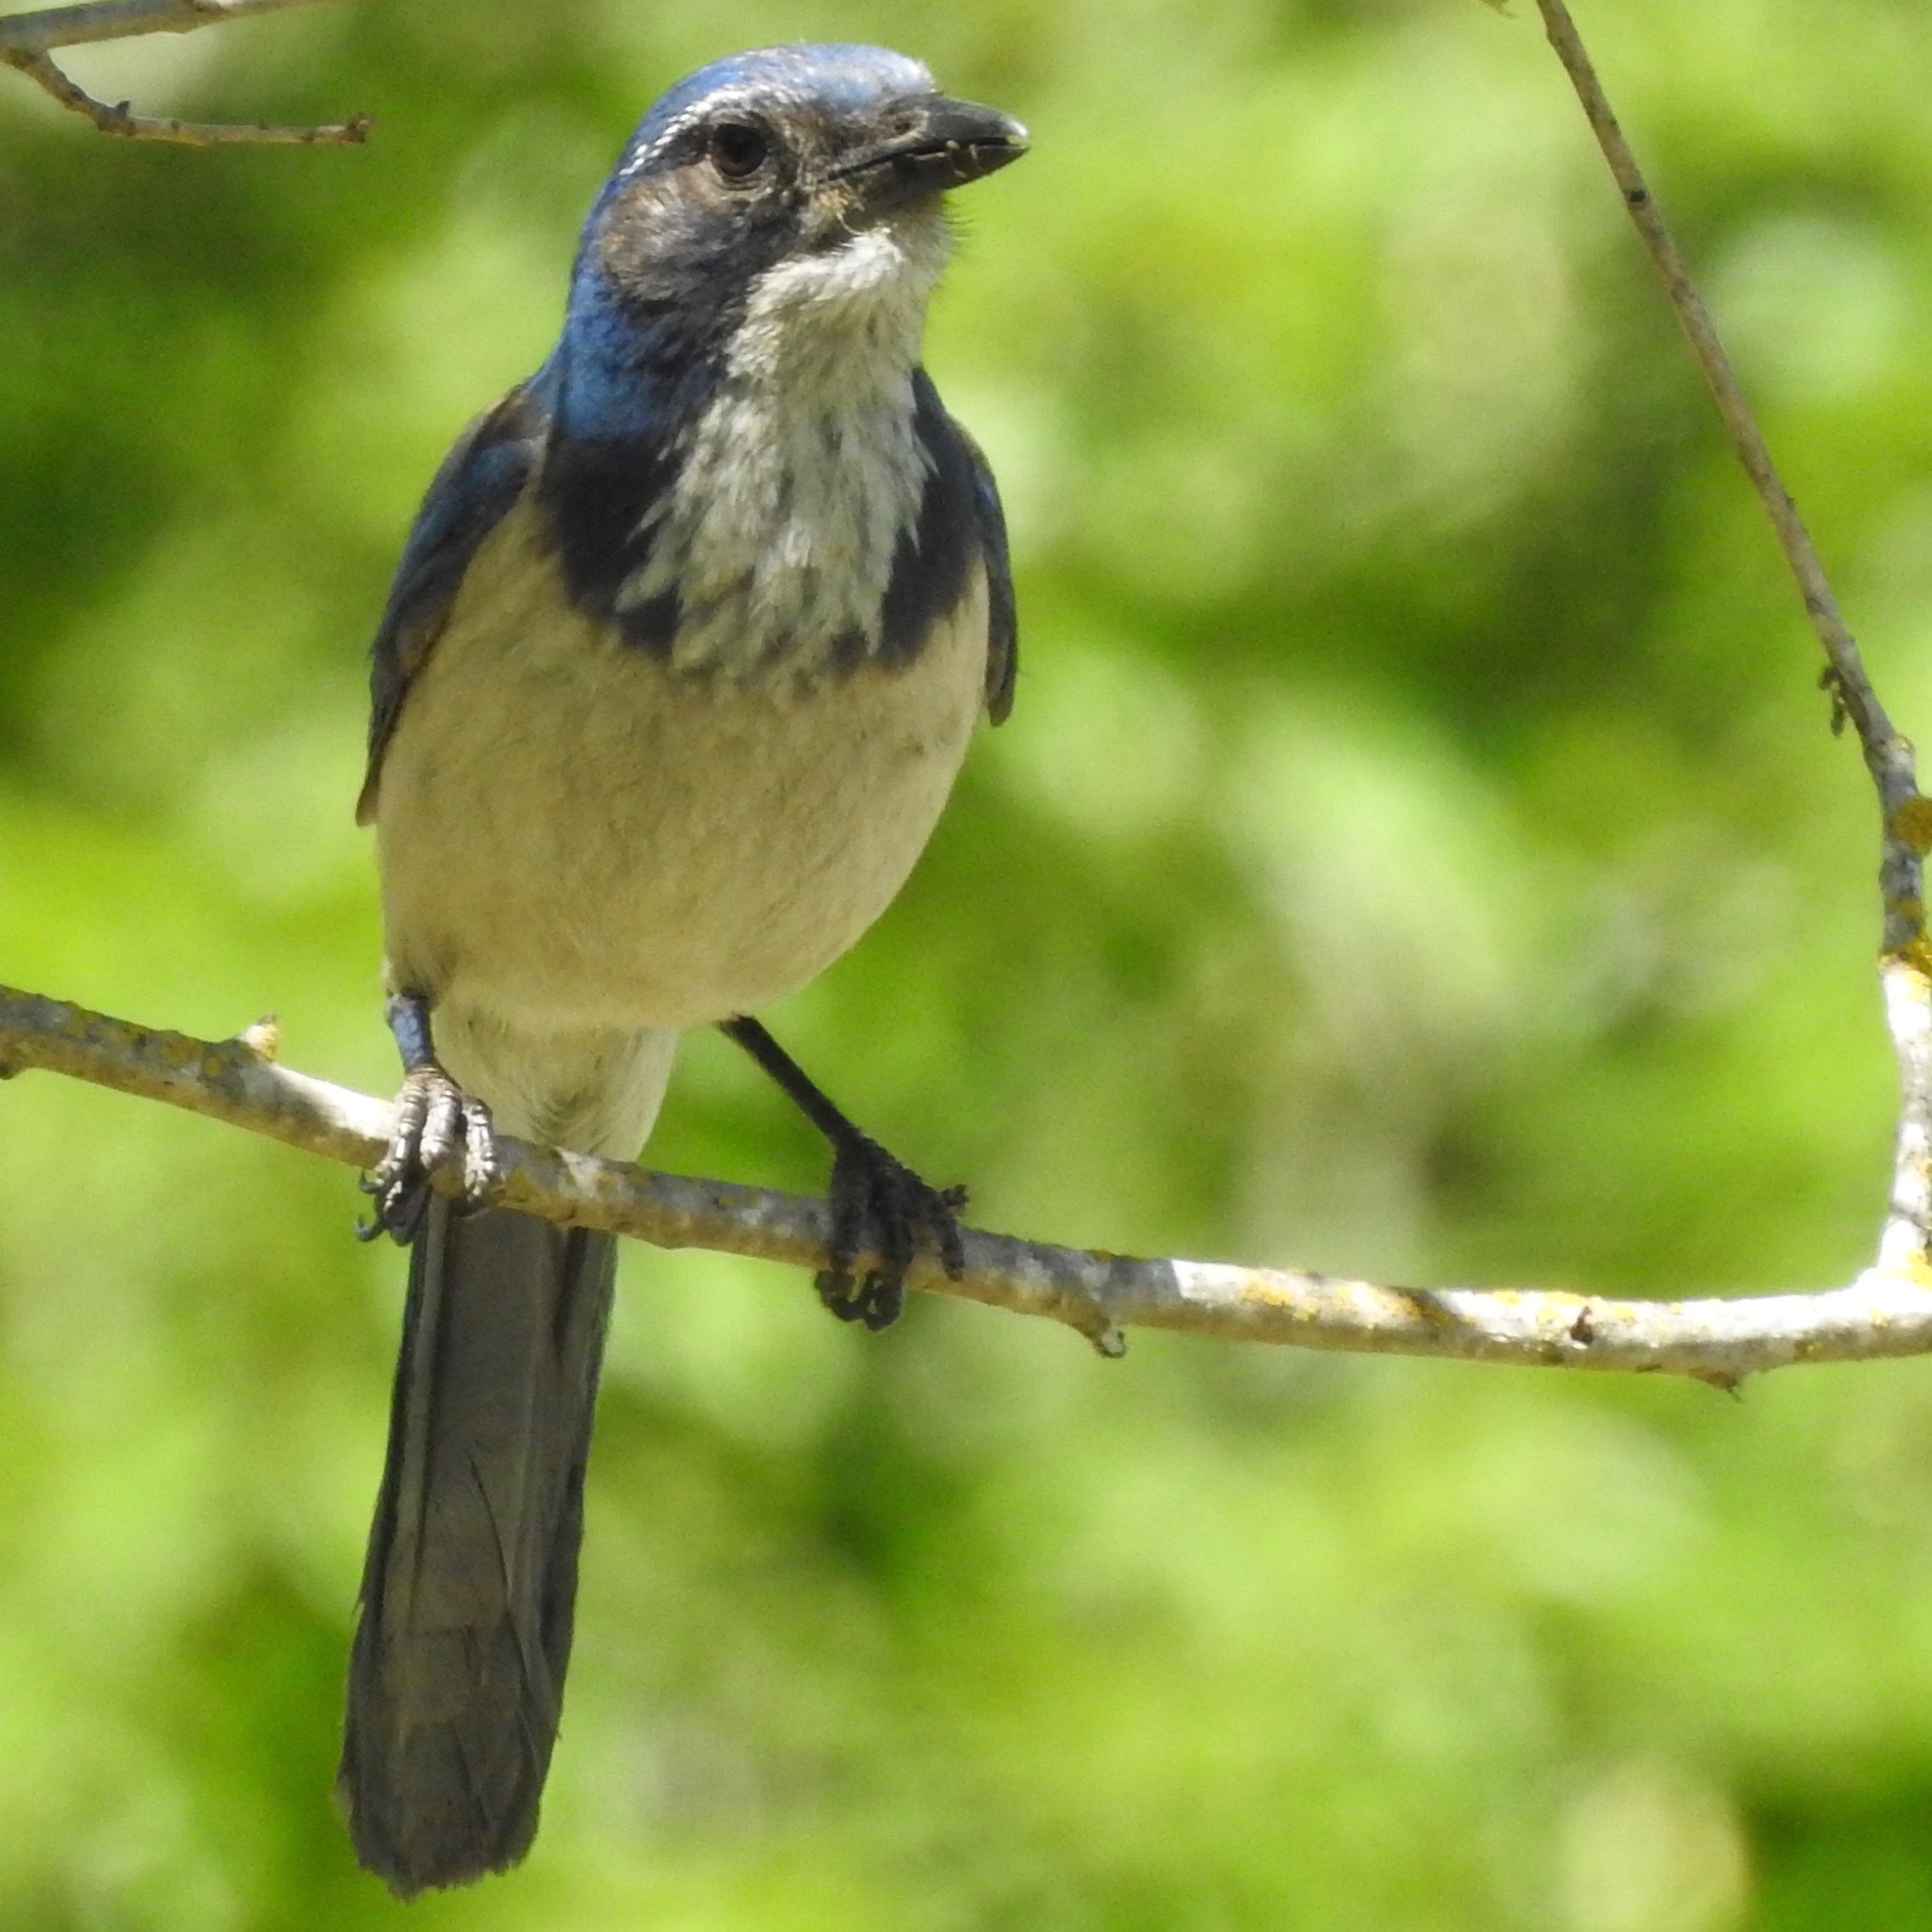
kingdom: Animalia
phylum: Chordata
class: Aves
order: Passeriformes
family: Corvidae
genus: Aphelocoma
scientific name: Aphelocoma californica
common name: California scrub-jay
